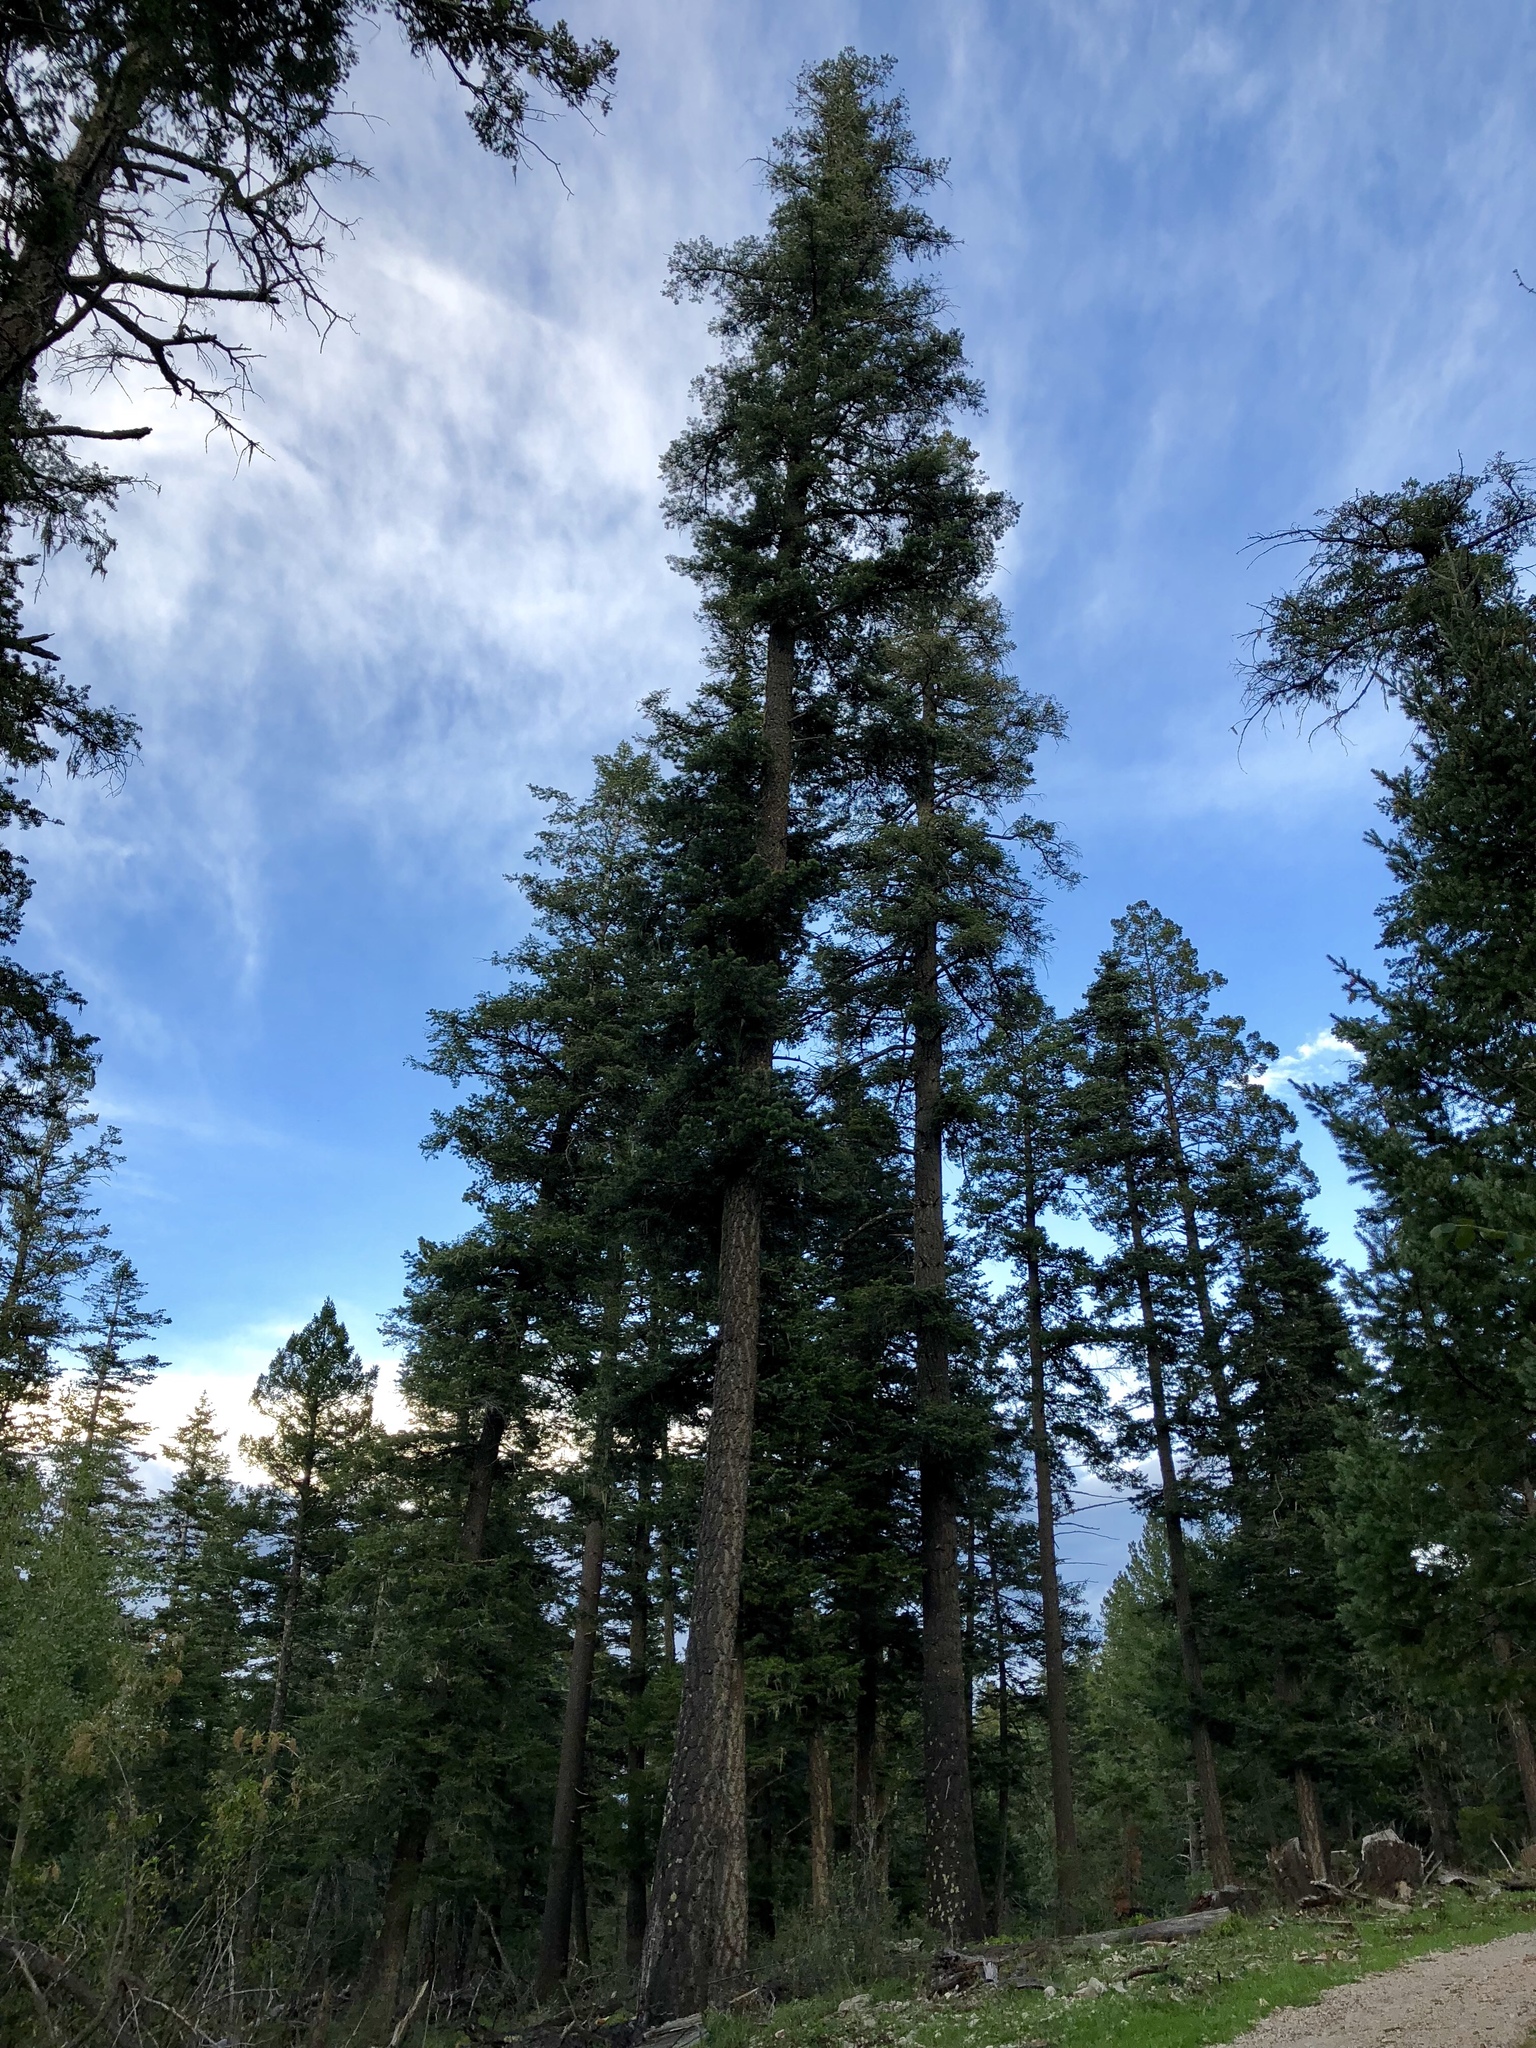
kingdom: Plantae
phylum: Tracheophyta
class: Pinopsida
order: Pinales
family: Pinaceae
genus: Pseudotsuga
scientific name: Pseudotsuga menziesii
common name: Douglas fir
